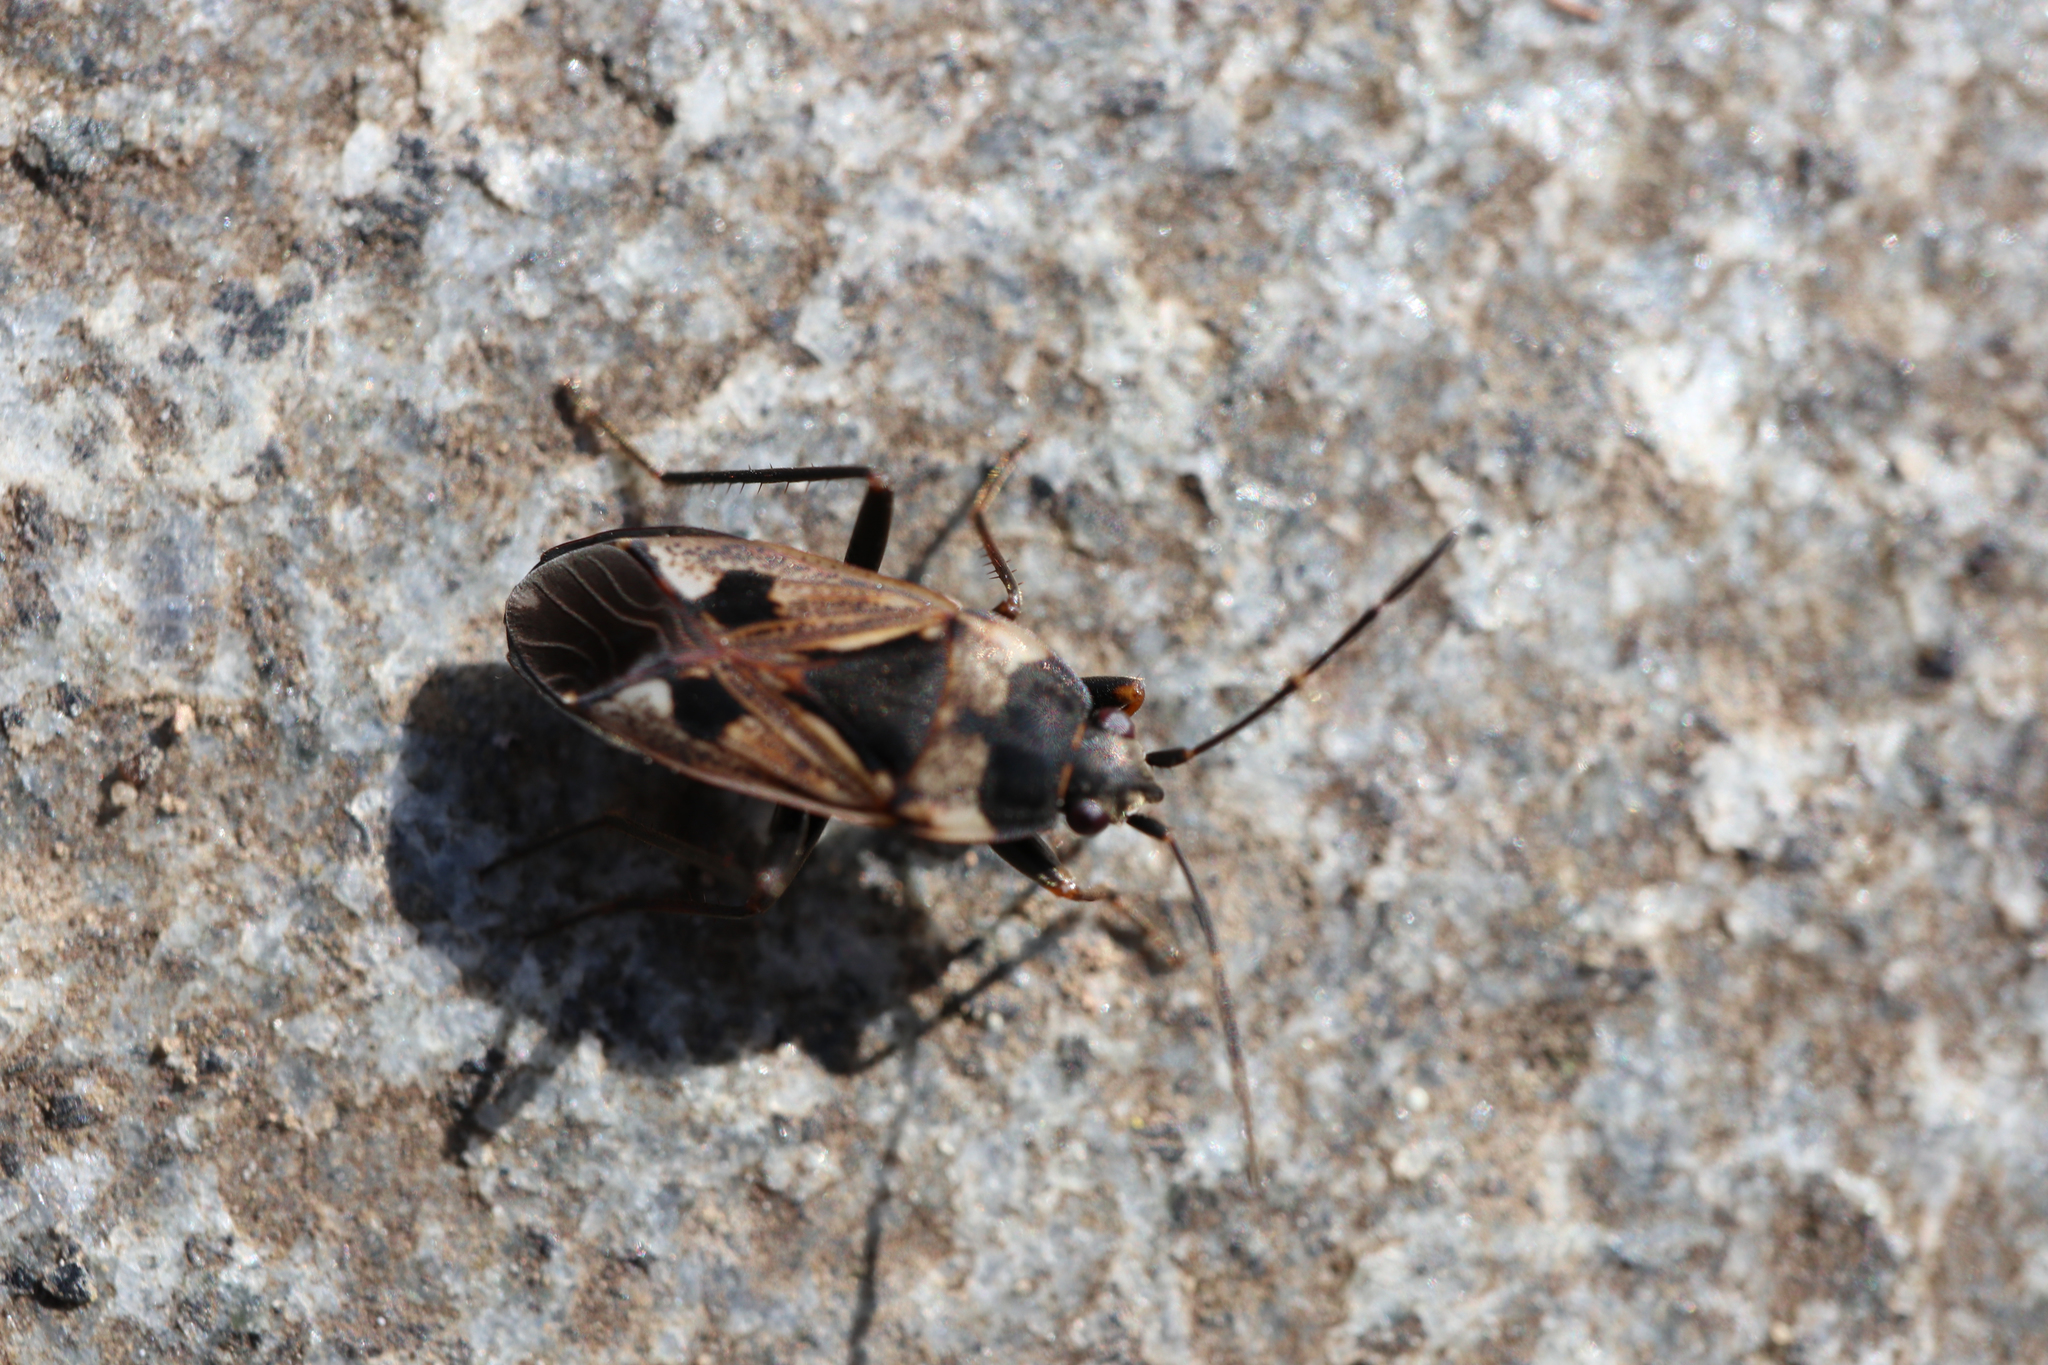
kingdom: Animalia
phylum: Arthropoda
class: Insecta
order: Hemiptera
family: Rhyparochromidae
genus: Rhyparochromus
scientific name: Rhyparochromus vulgaris
